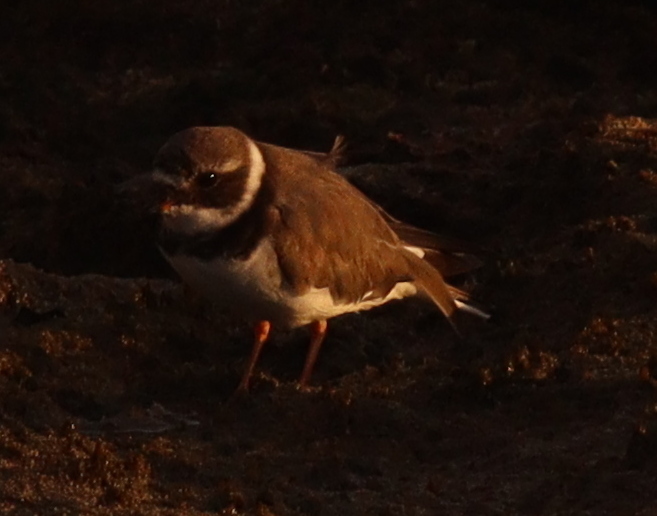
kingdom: Animalia
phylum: Chordata
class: Aves
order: Charadriiformes
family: Charadriidae
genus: Charadrius
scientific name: Charadrius hiaticula
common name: Common ringed plover
